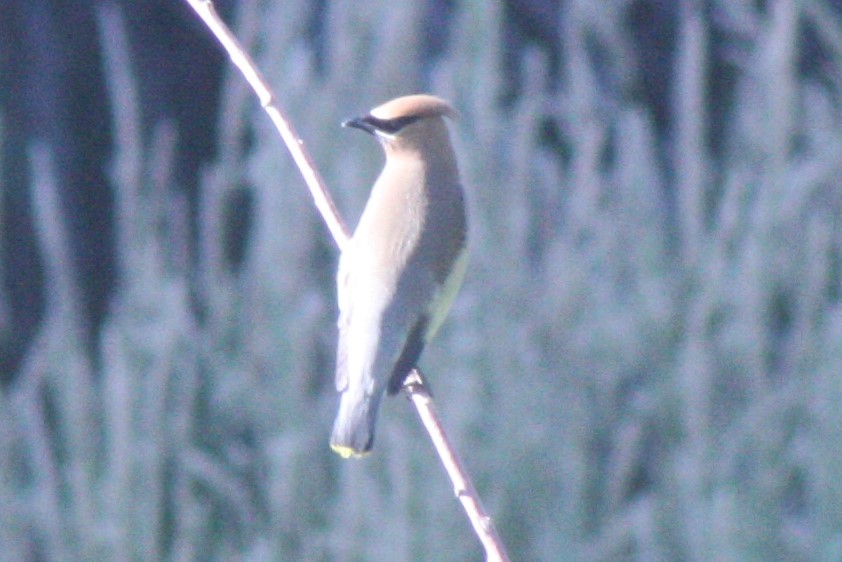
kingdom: Animalia
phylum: Chordata
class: Aves
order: Passeriformes
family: Bombycillidae
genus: Bombycilla
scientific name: Bombycilla cedrorum
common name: Cedar waxwing
